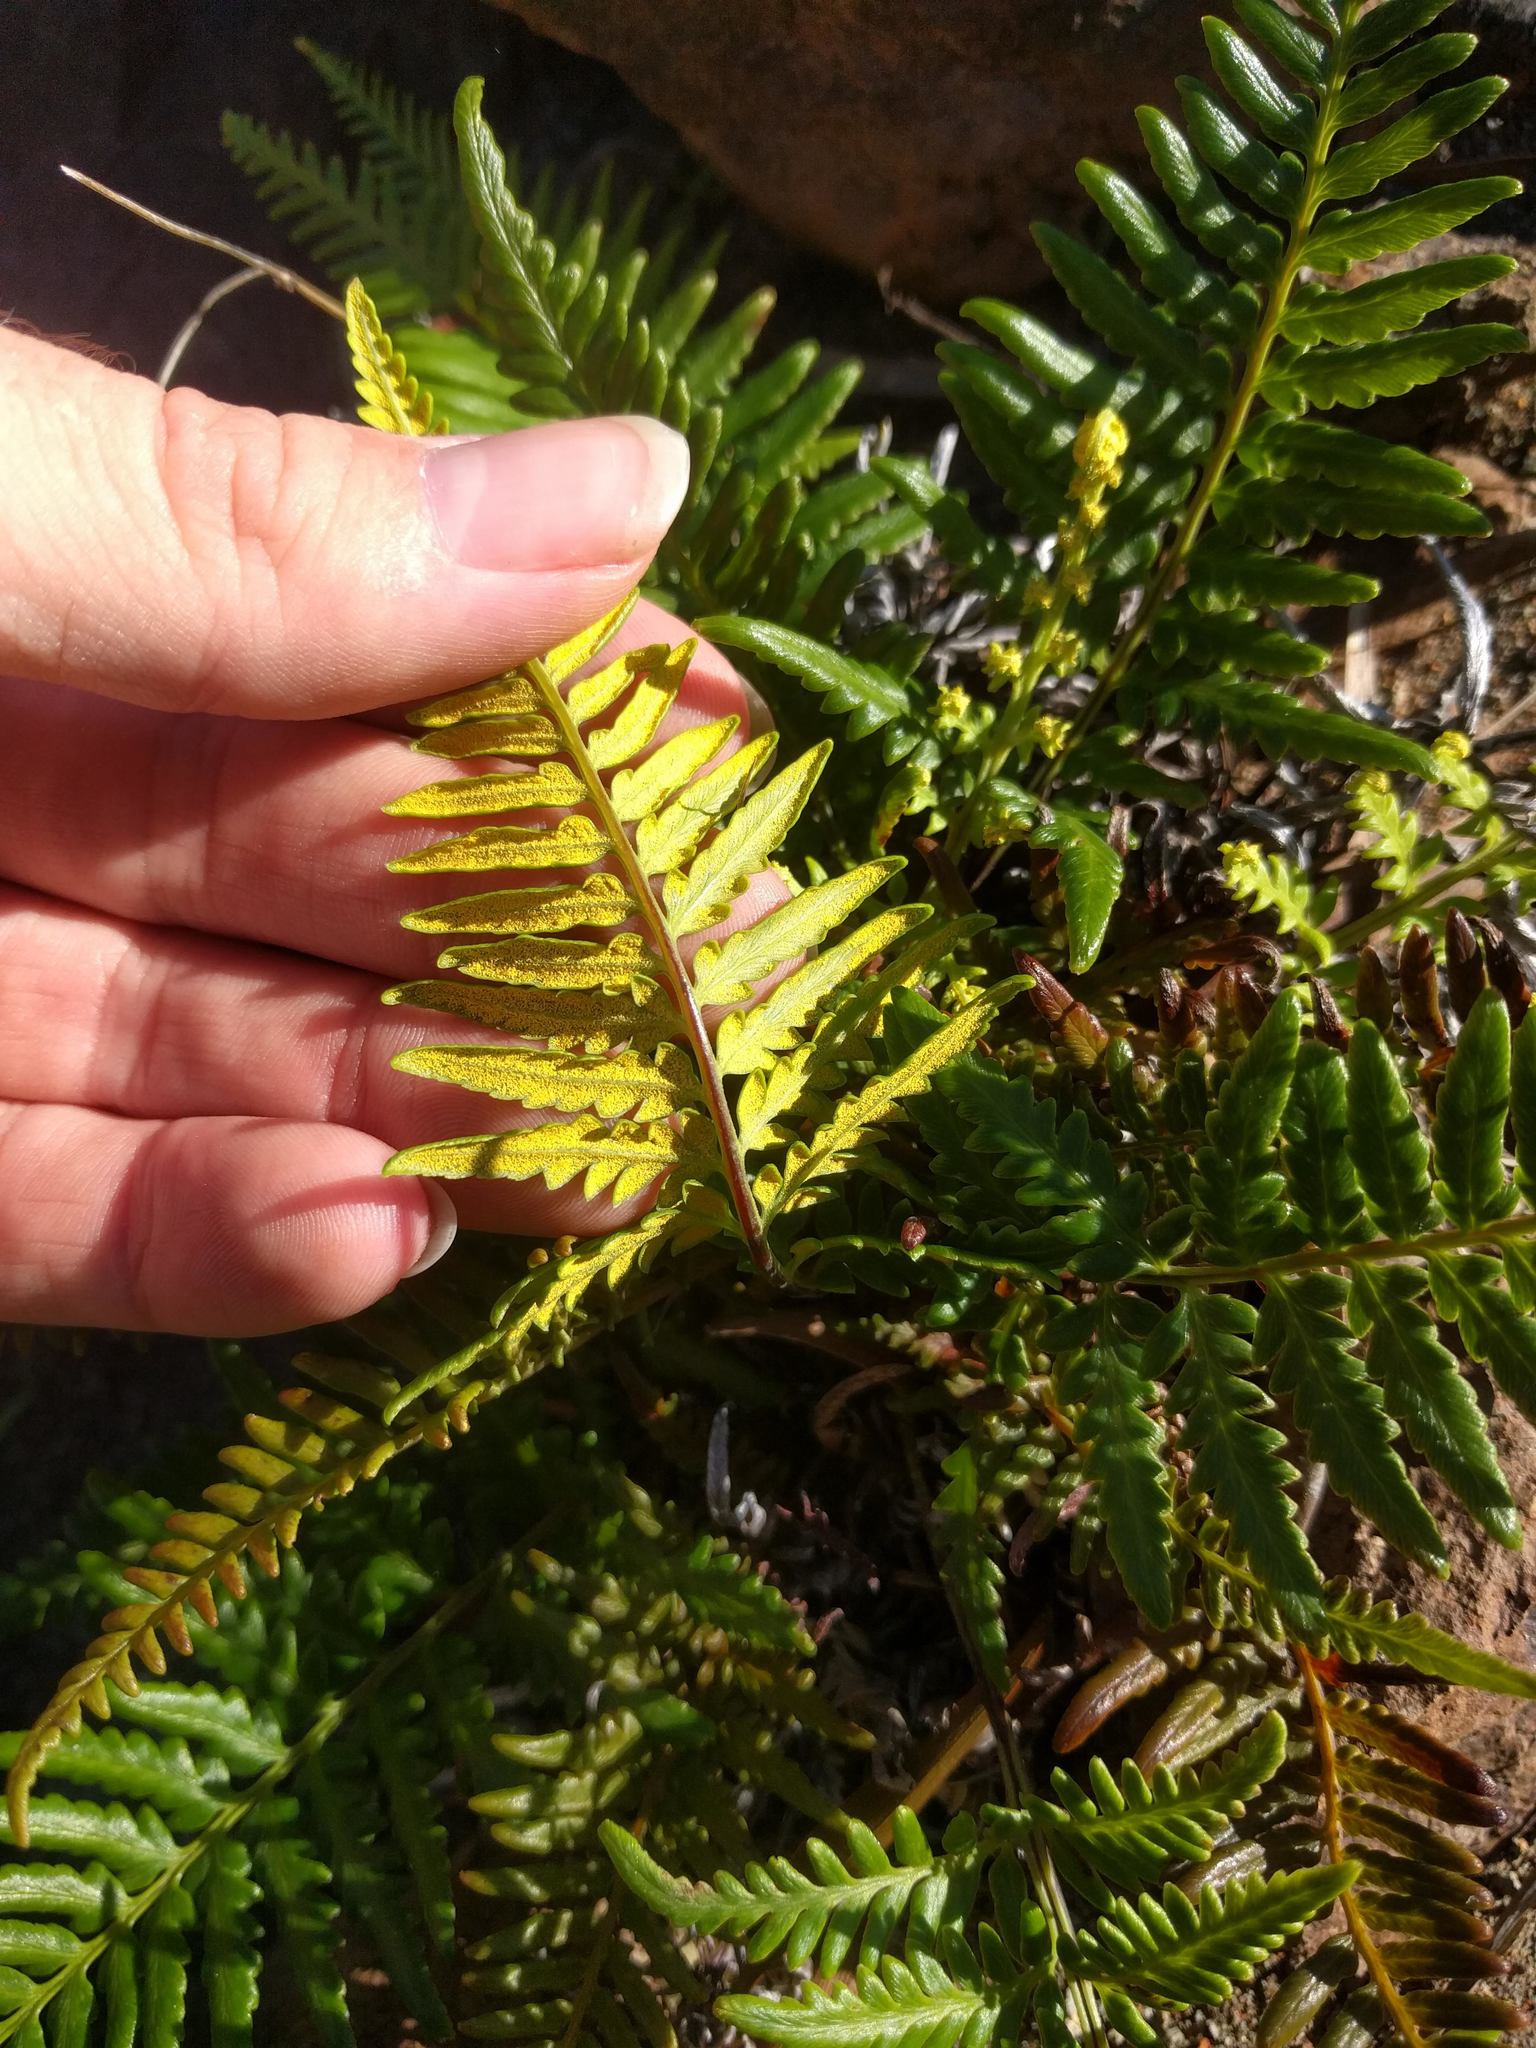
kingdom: Plantae
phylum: Tracheophyta
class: Polypodiopsida
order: Polypodiales
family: Pteridaceae
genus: Pityrogramma
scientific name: Pityrogramma austroamericana
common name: Leatherleaf goldback fern
